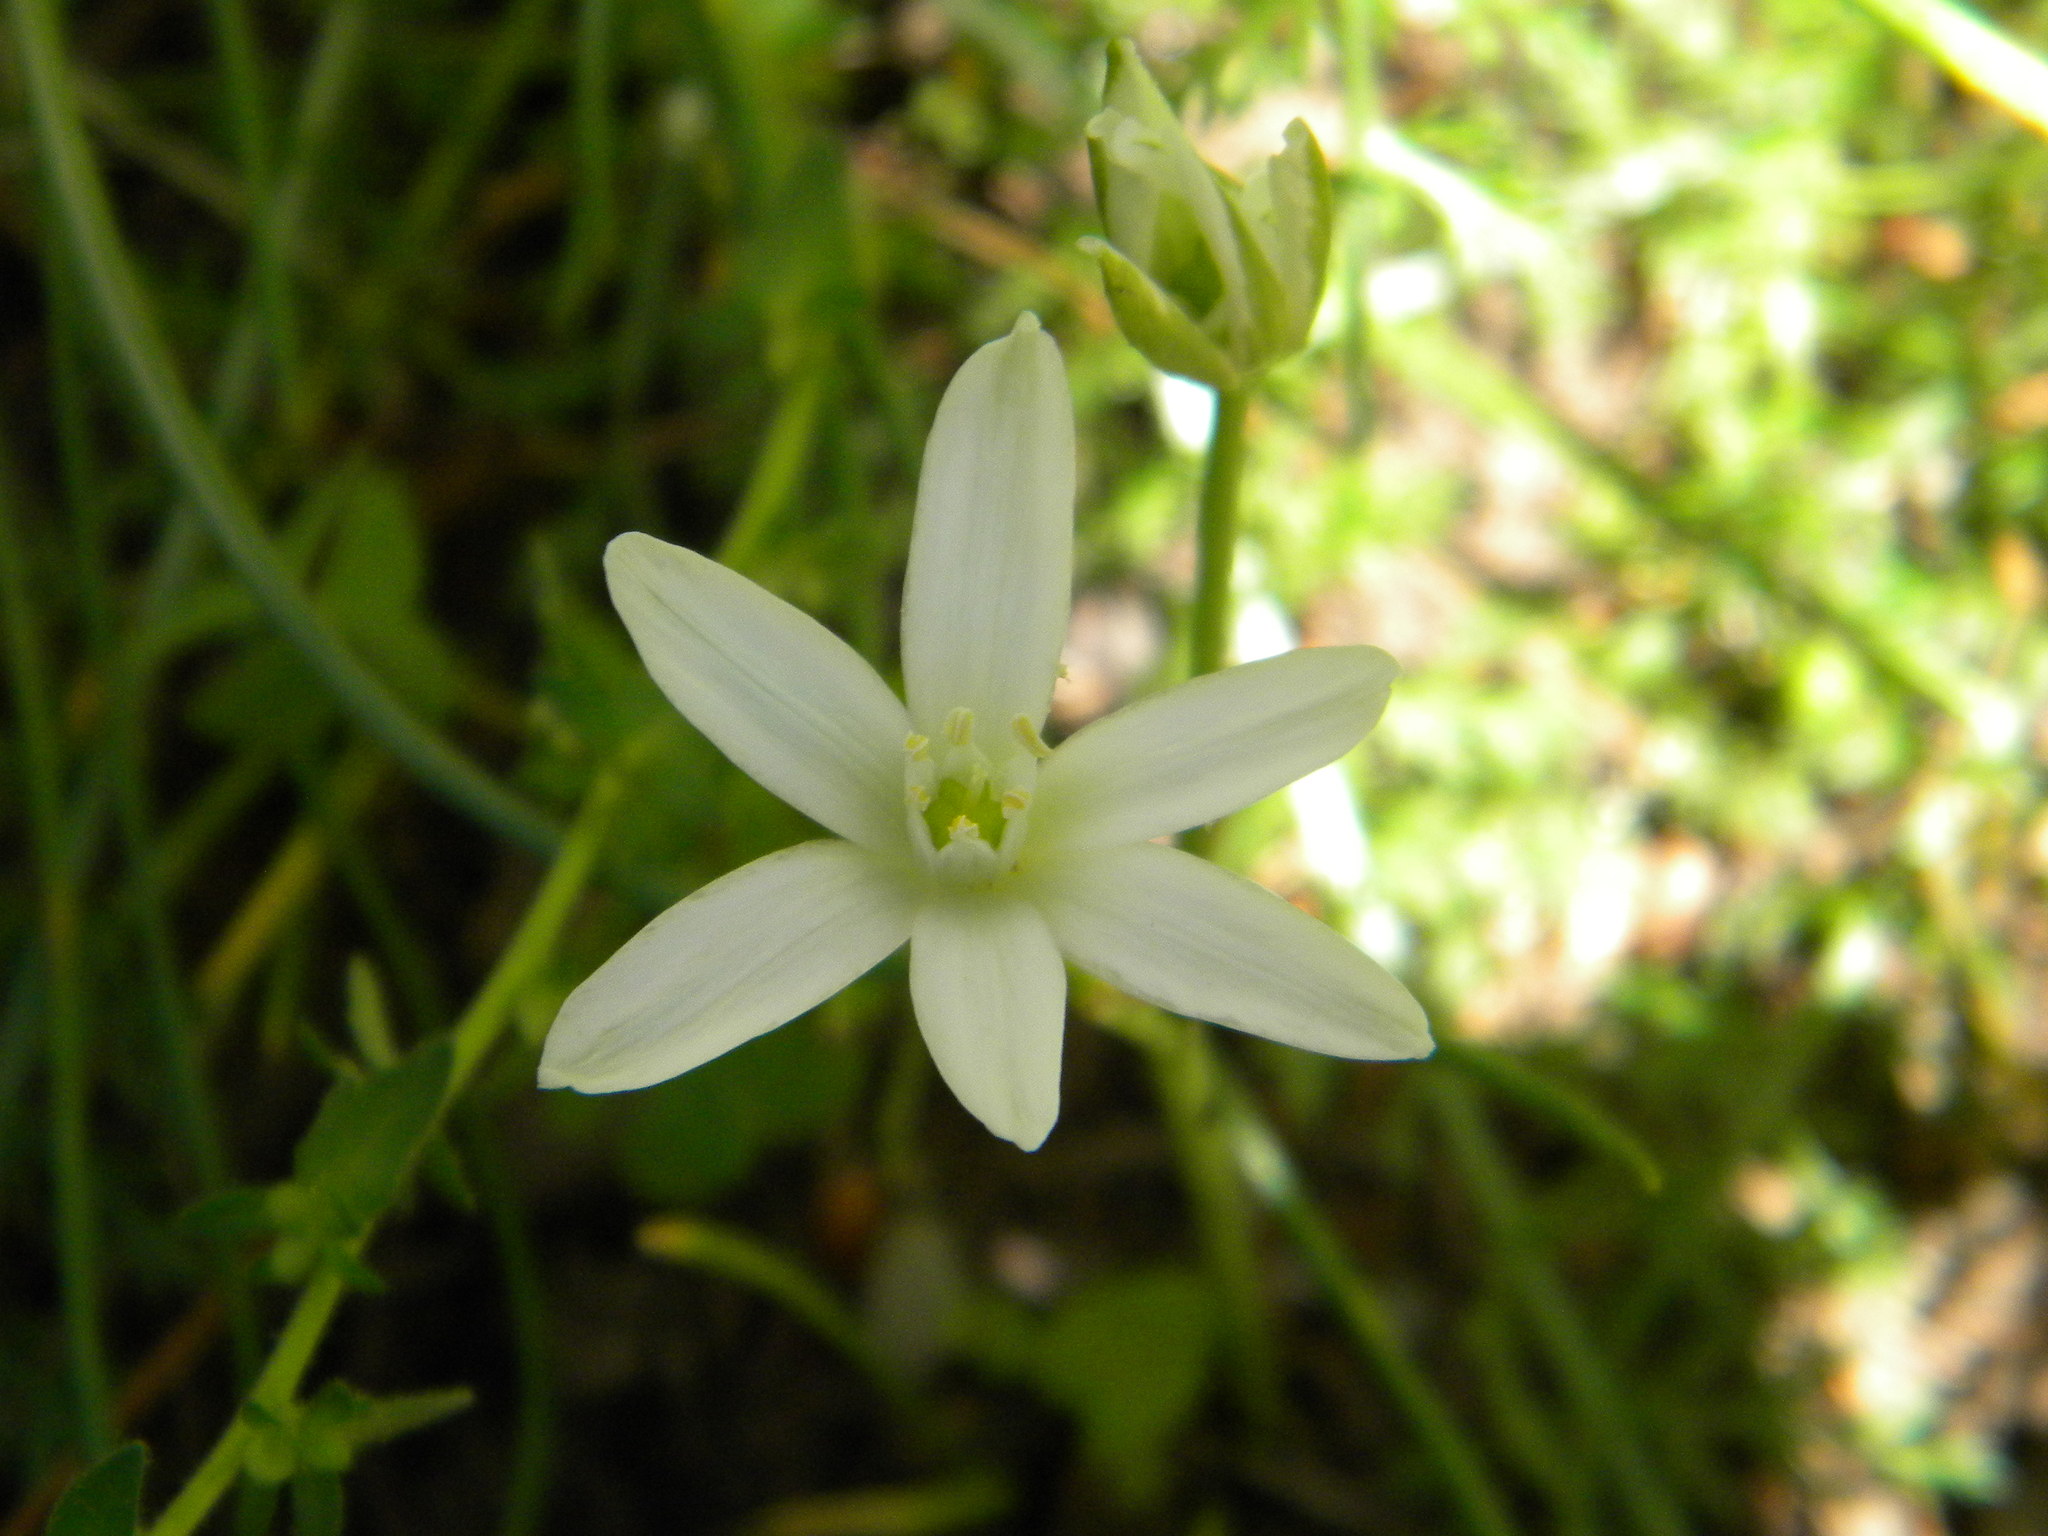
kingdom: Plantae
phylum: Tracheophyta
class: Liliopsida
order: Asparagales
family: Asparagaceae
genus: Ornithogalum
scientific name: Ornithogalum umbellatum
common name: Garden star-of-bethlehem
